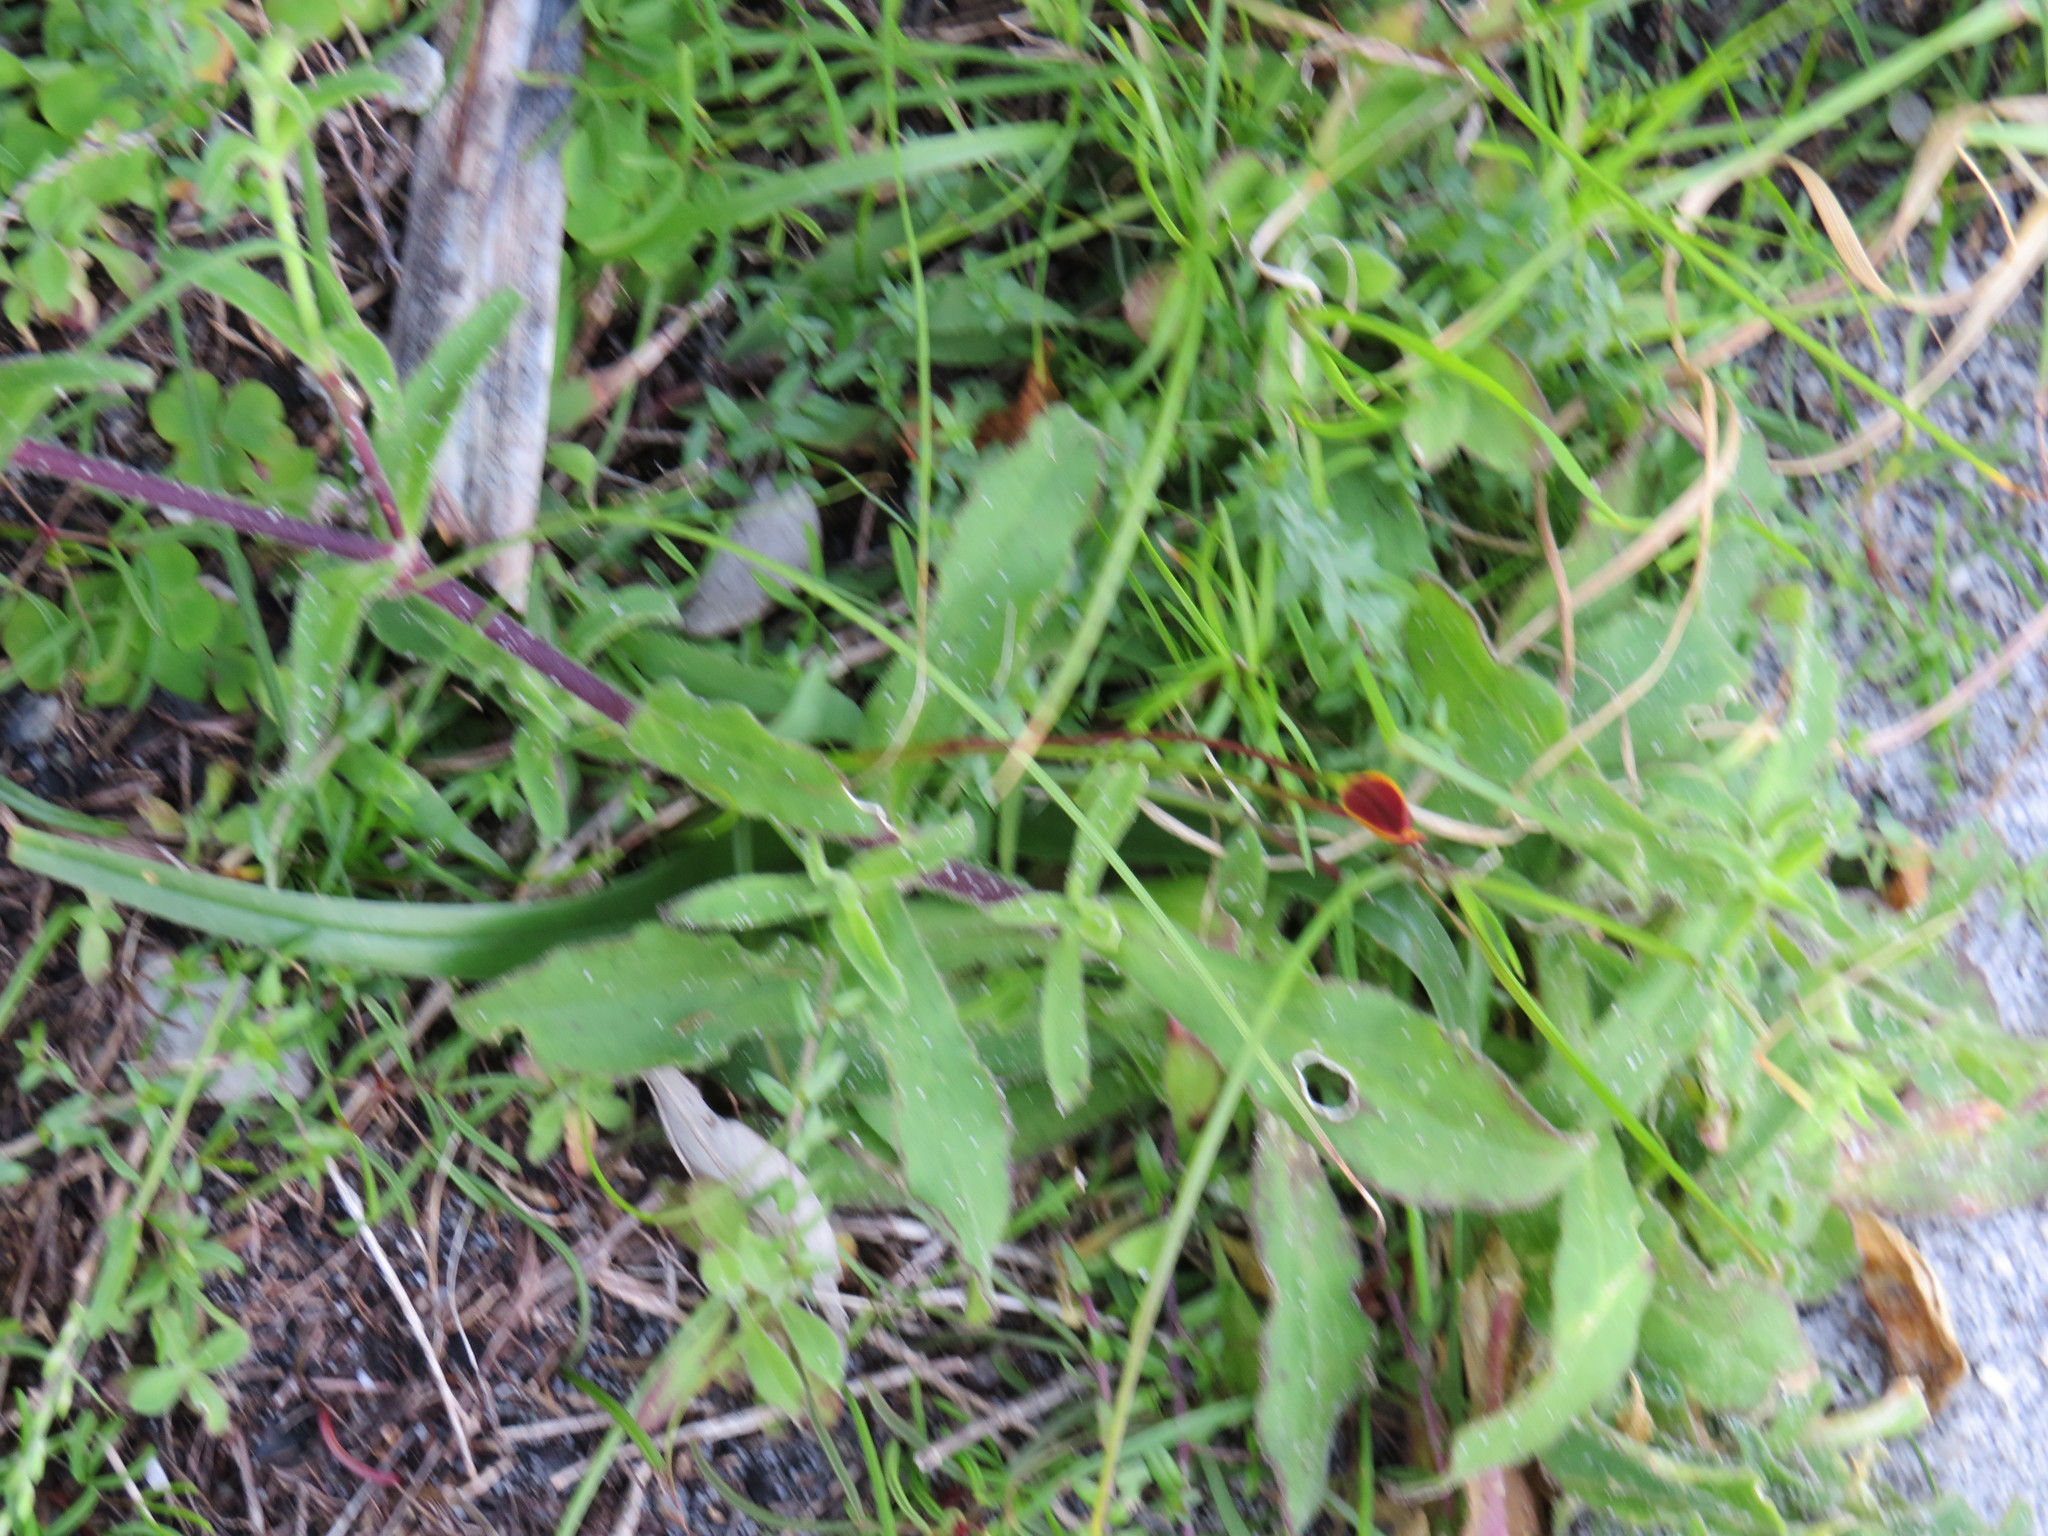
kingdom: Plantae
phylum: Tracheophyta
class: Magnoliopsida
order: Caryophyllales
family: Caryophyllaceae
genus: Silene
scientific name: Silene undulata
